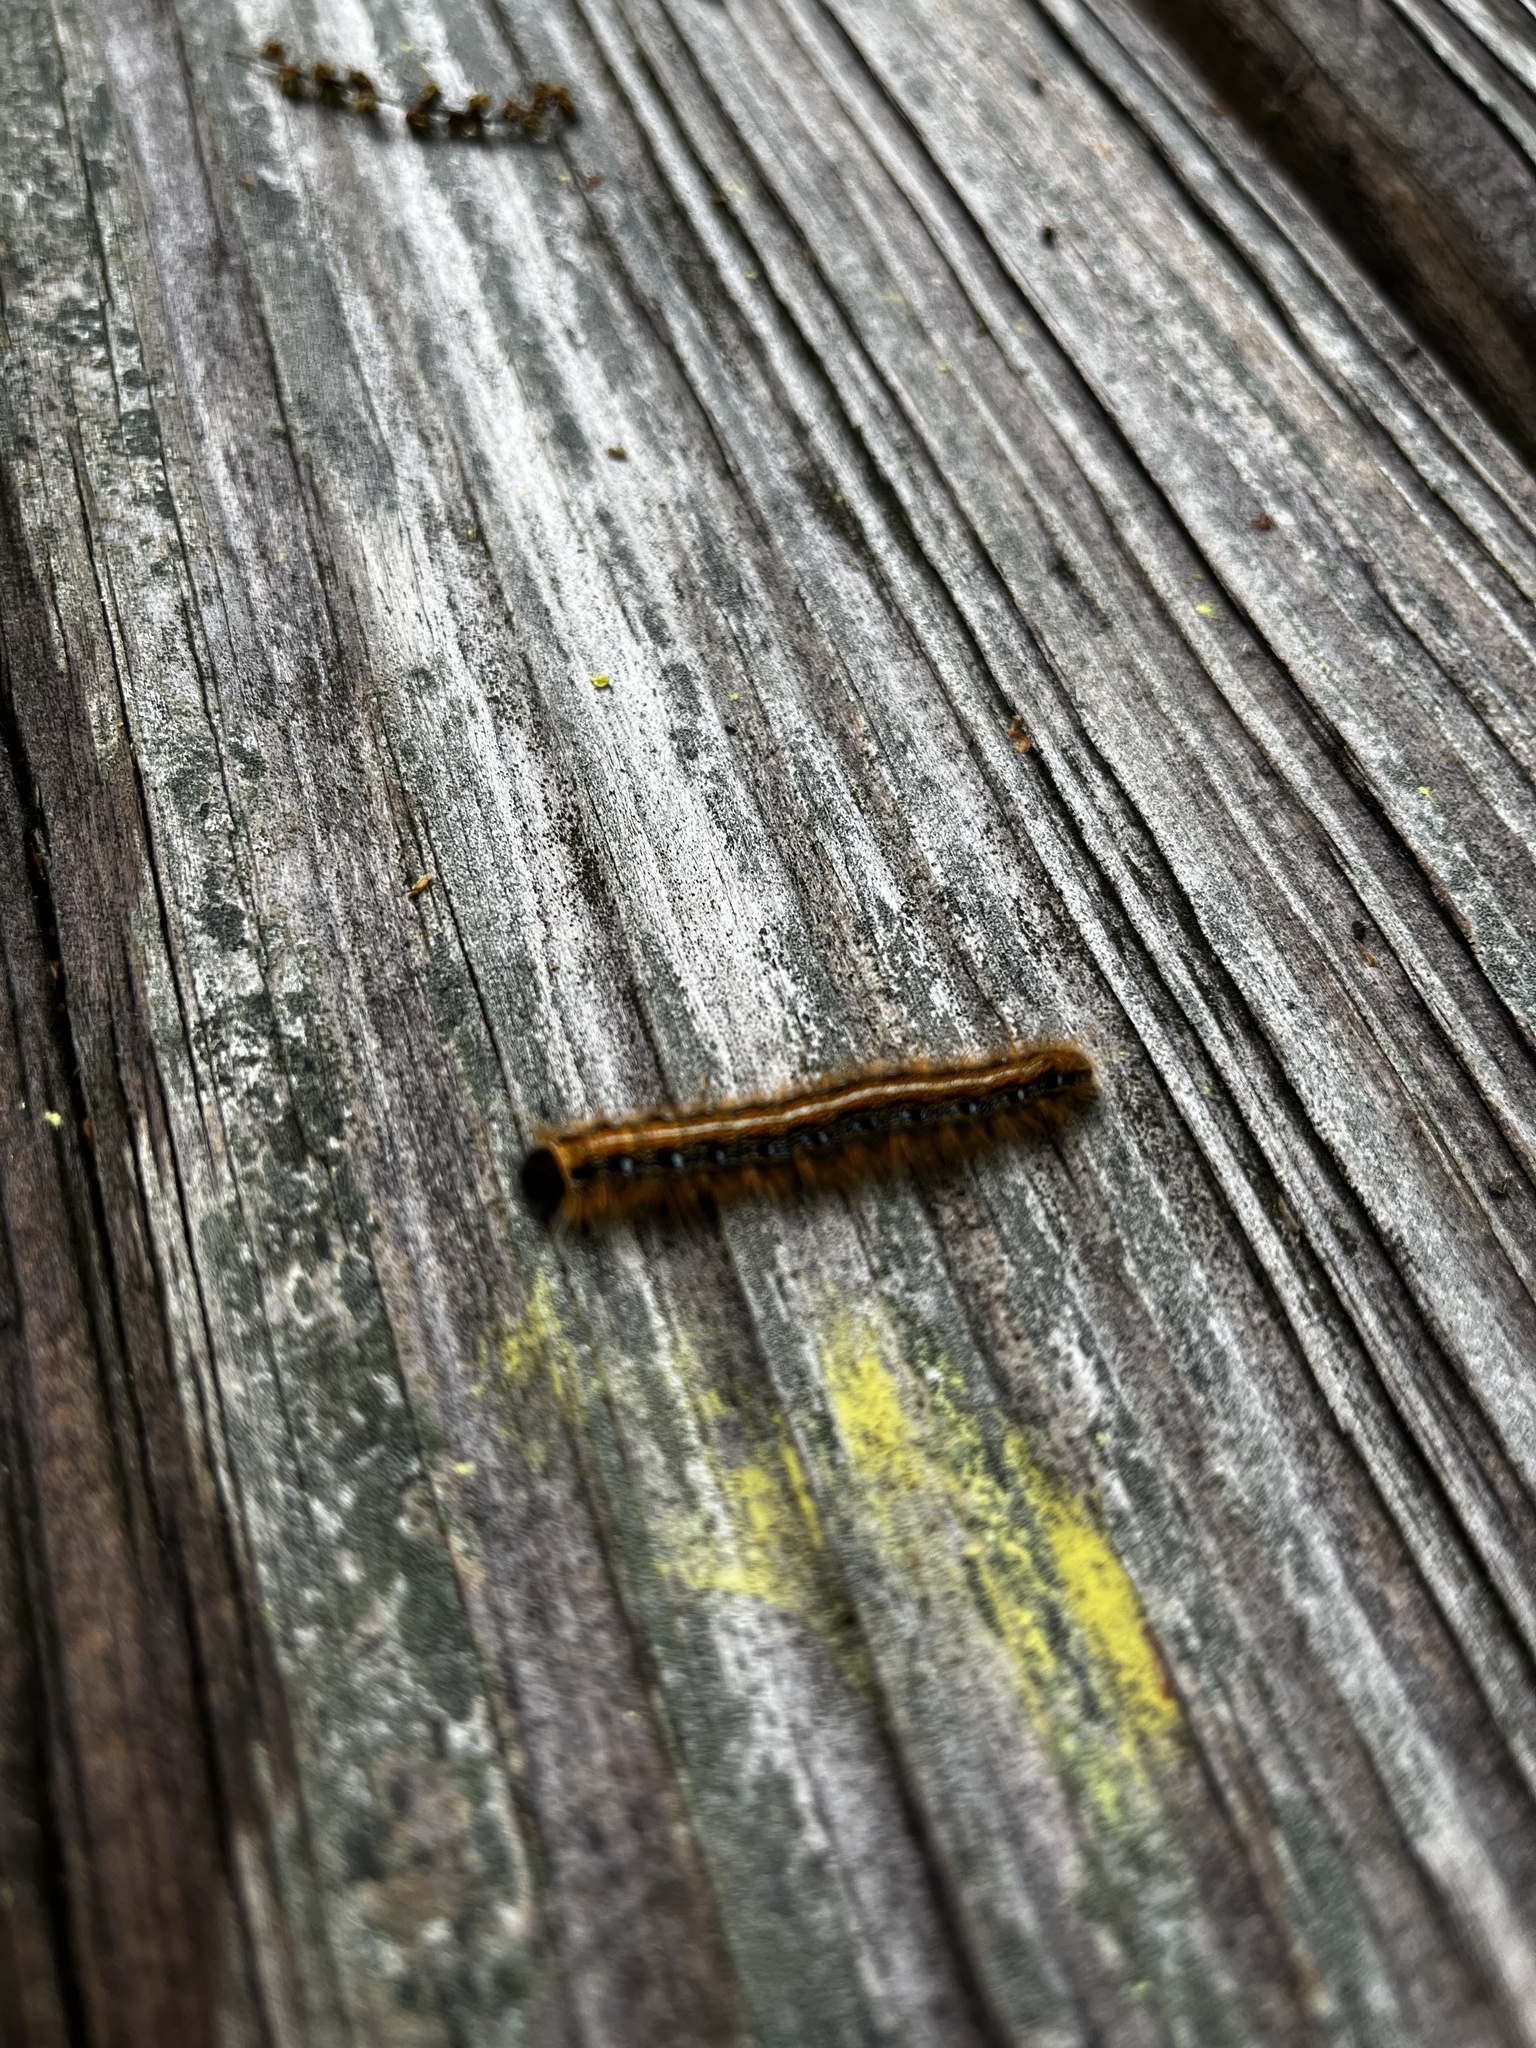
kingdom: Animalia
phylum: Arthropoda
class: Insecta
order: Lepidoptera
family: Lasiocampidae
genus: Malacosoma
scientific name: Malacosoma americana
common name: Eastern tent caterpillar moth
